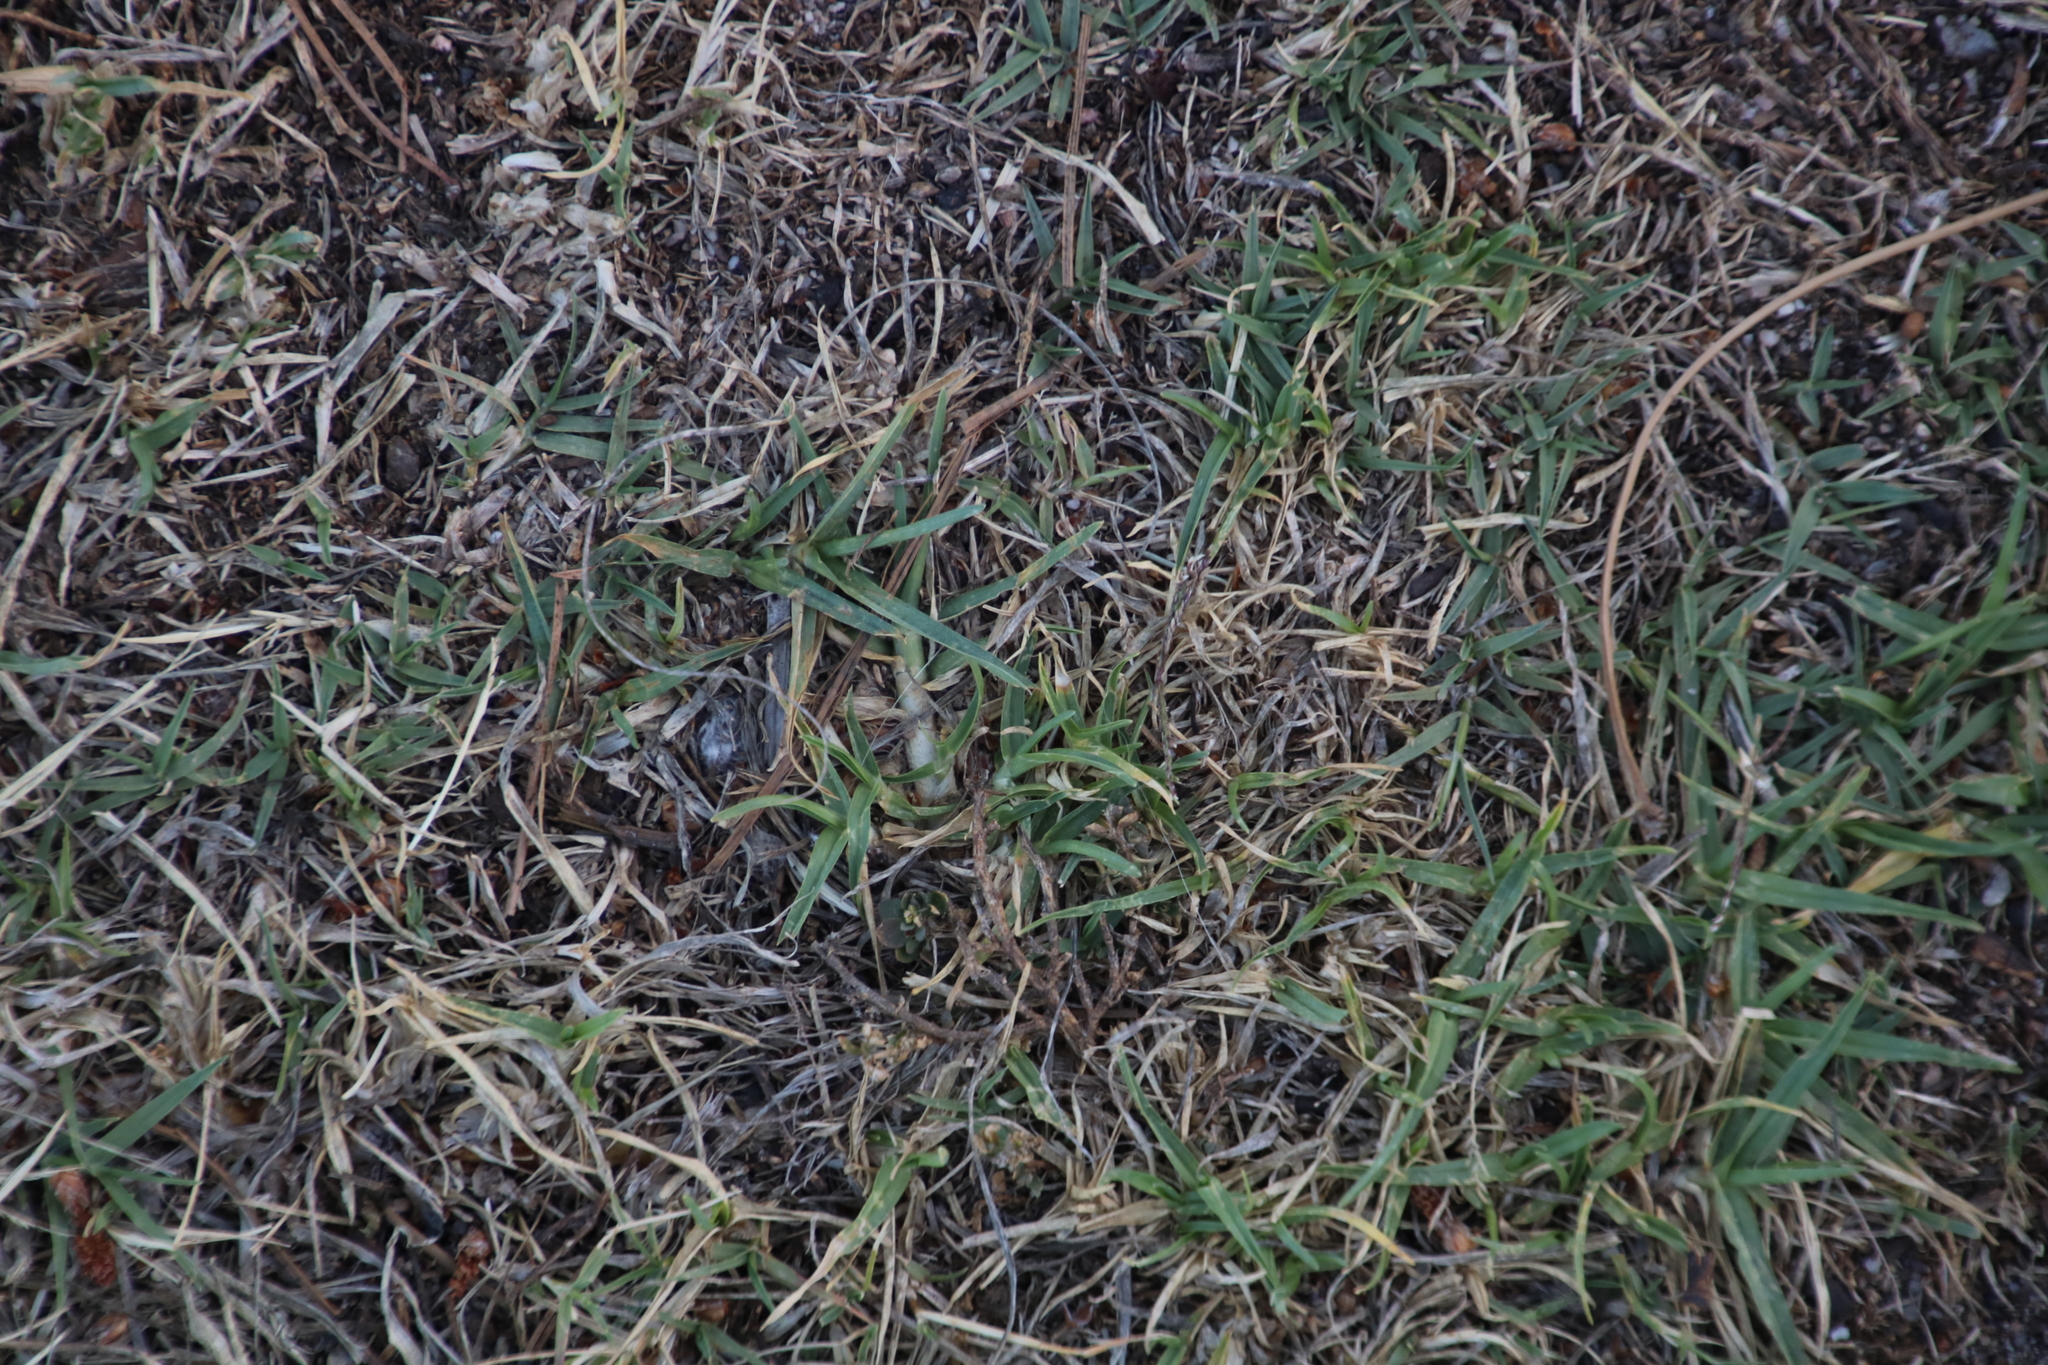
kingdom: Plantae
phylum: Tracheophyta
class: Liliopsida
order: Poales
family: Poaceae
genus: Cynodon
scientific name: Cynodon dactylon
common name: Bermuda grass
